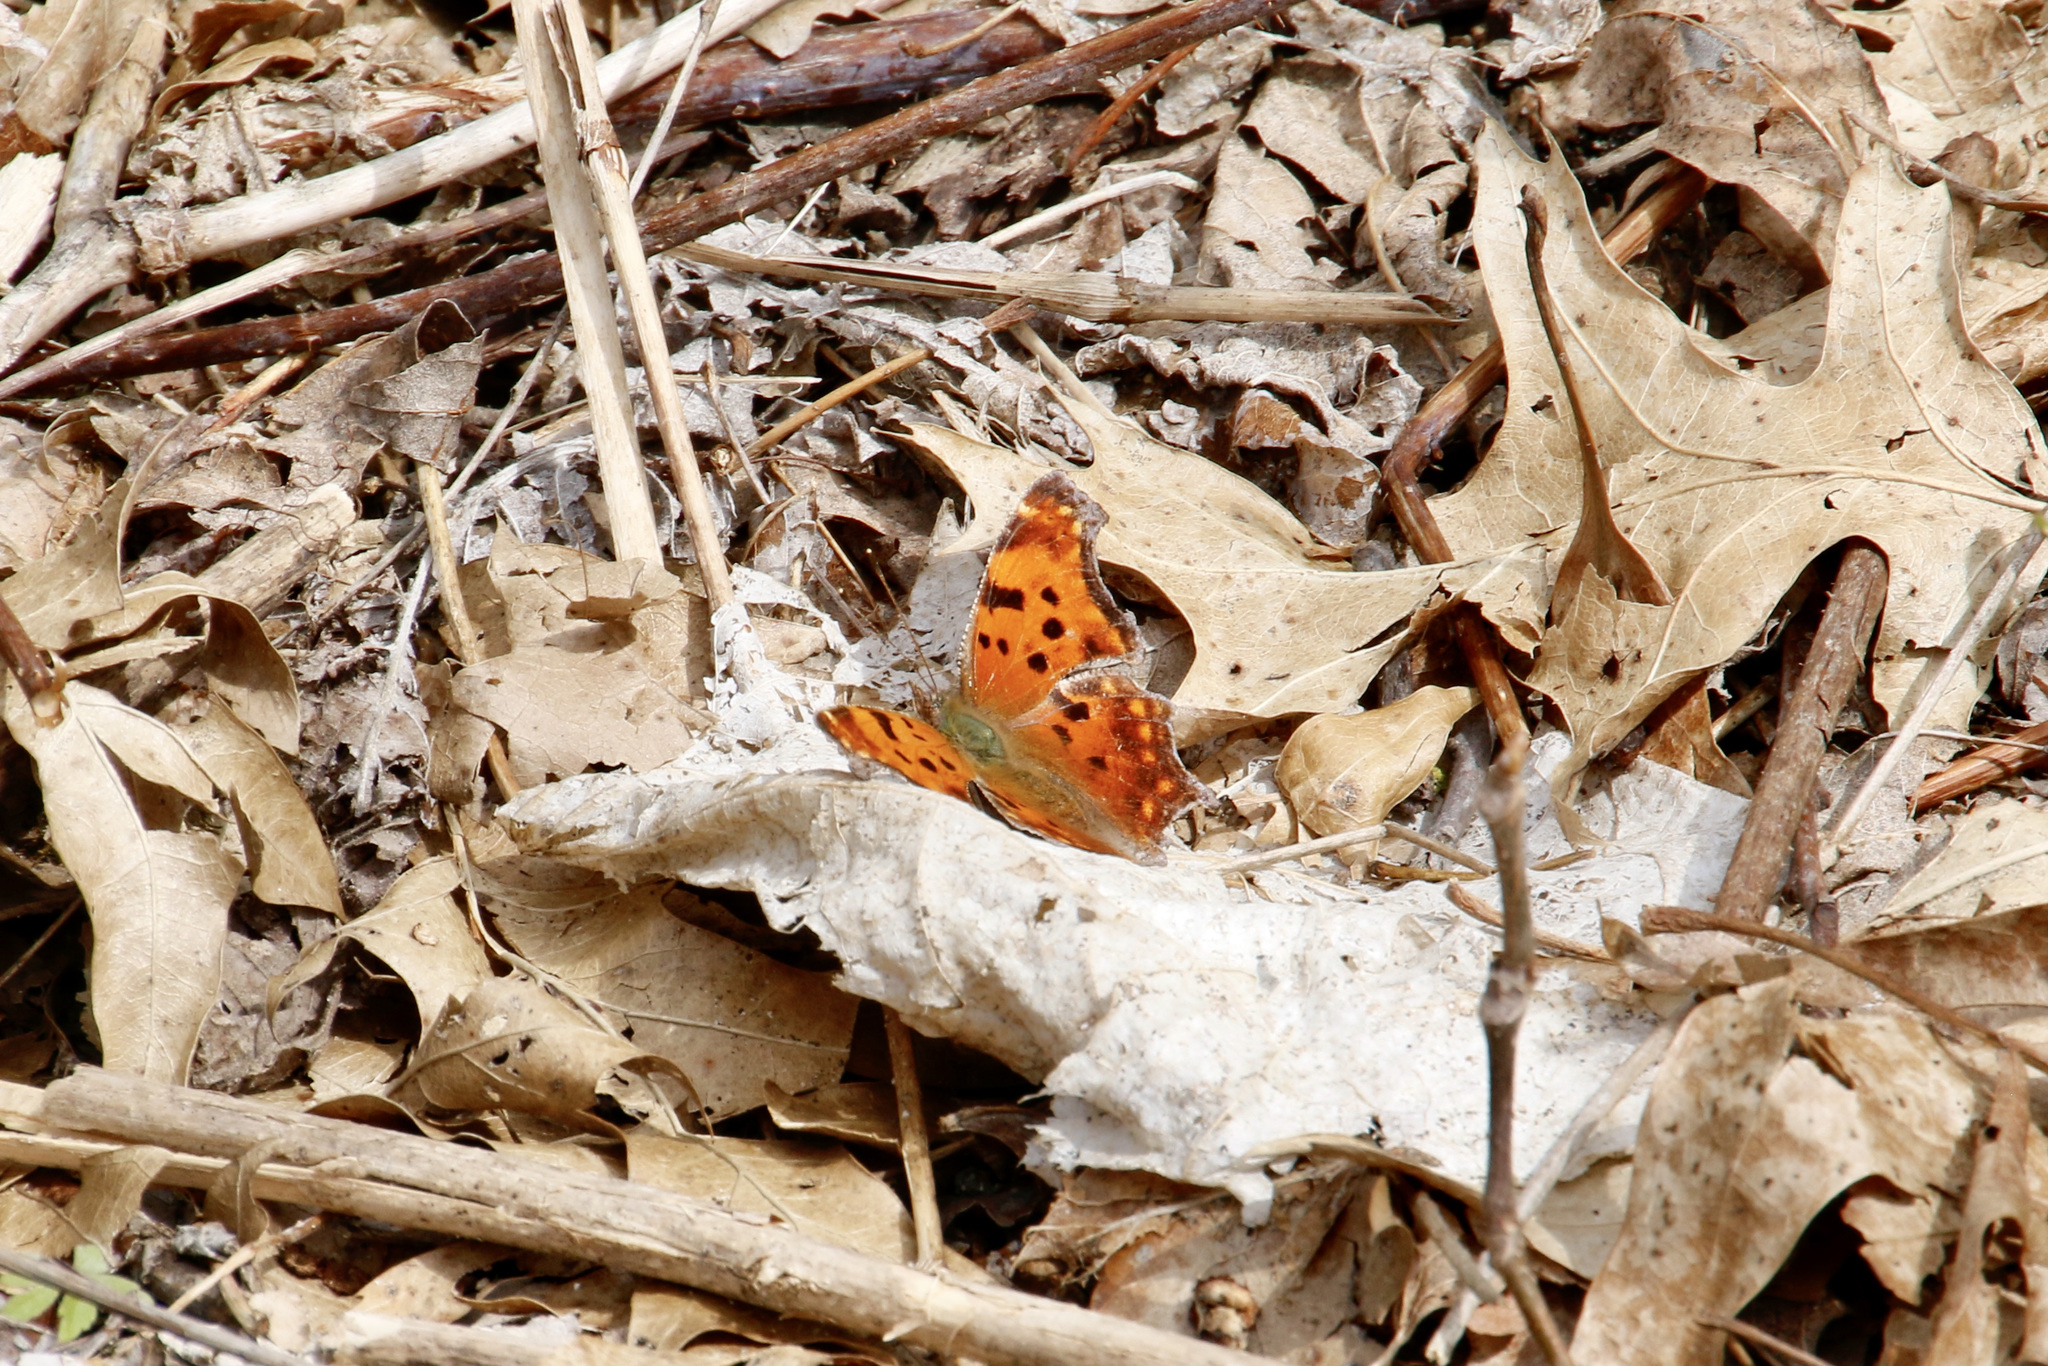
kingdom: Animalia
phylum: Arthropoda
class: Insecta
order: Lepidoptera
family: Nymphalidae
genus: Polygonia
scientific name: Polygonia comma
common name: Eastern comma
